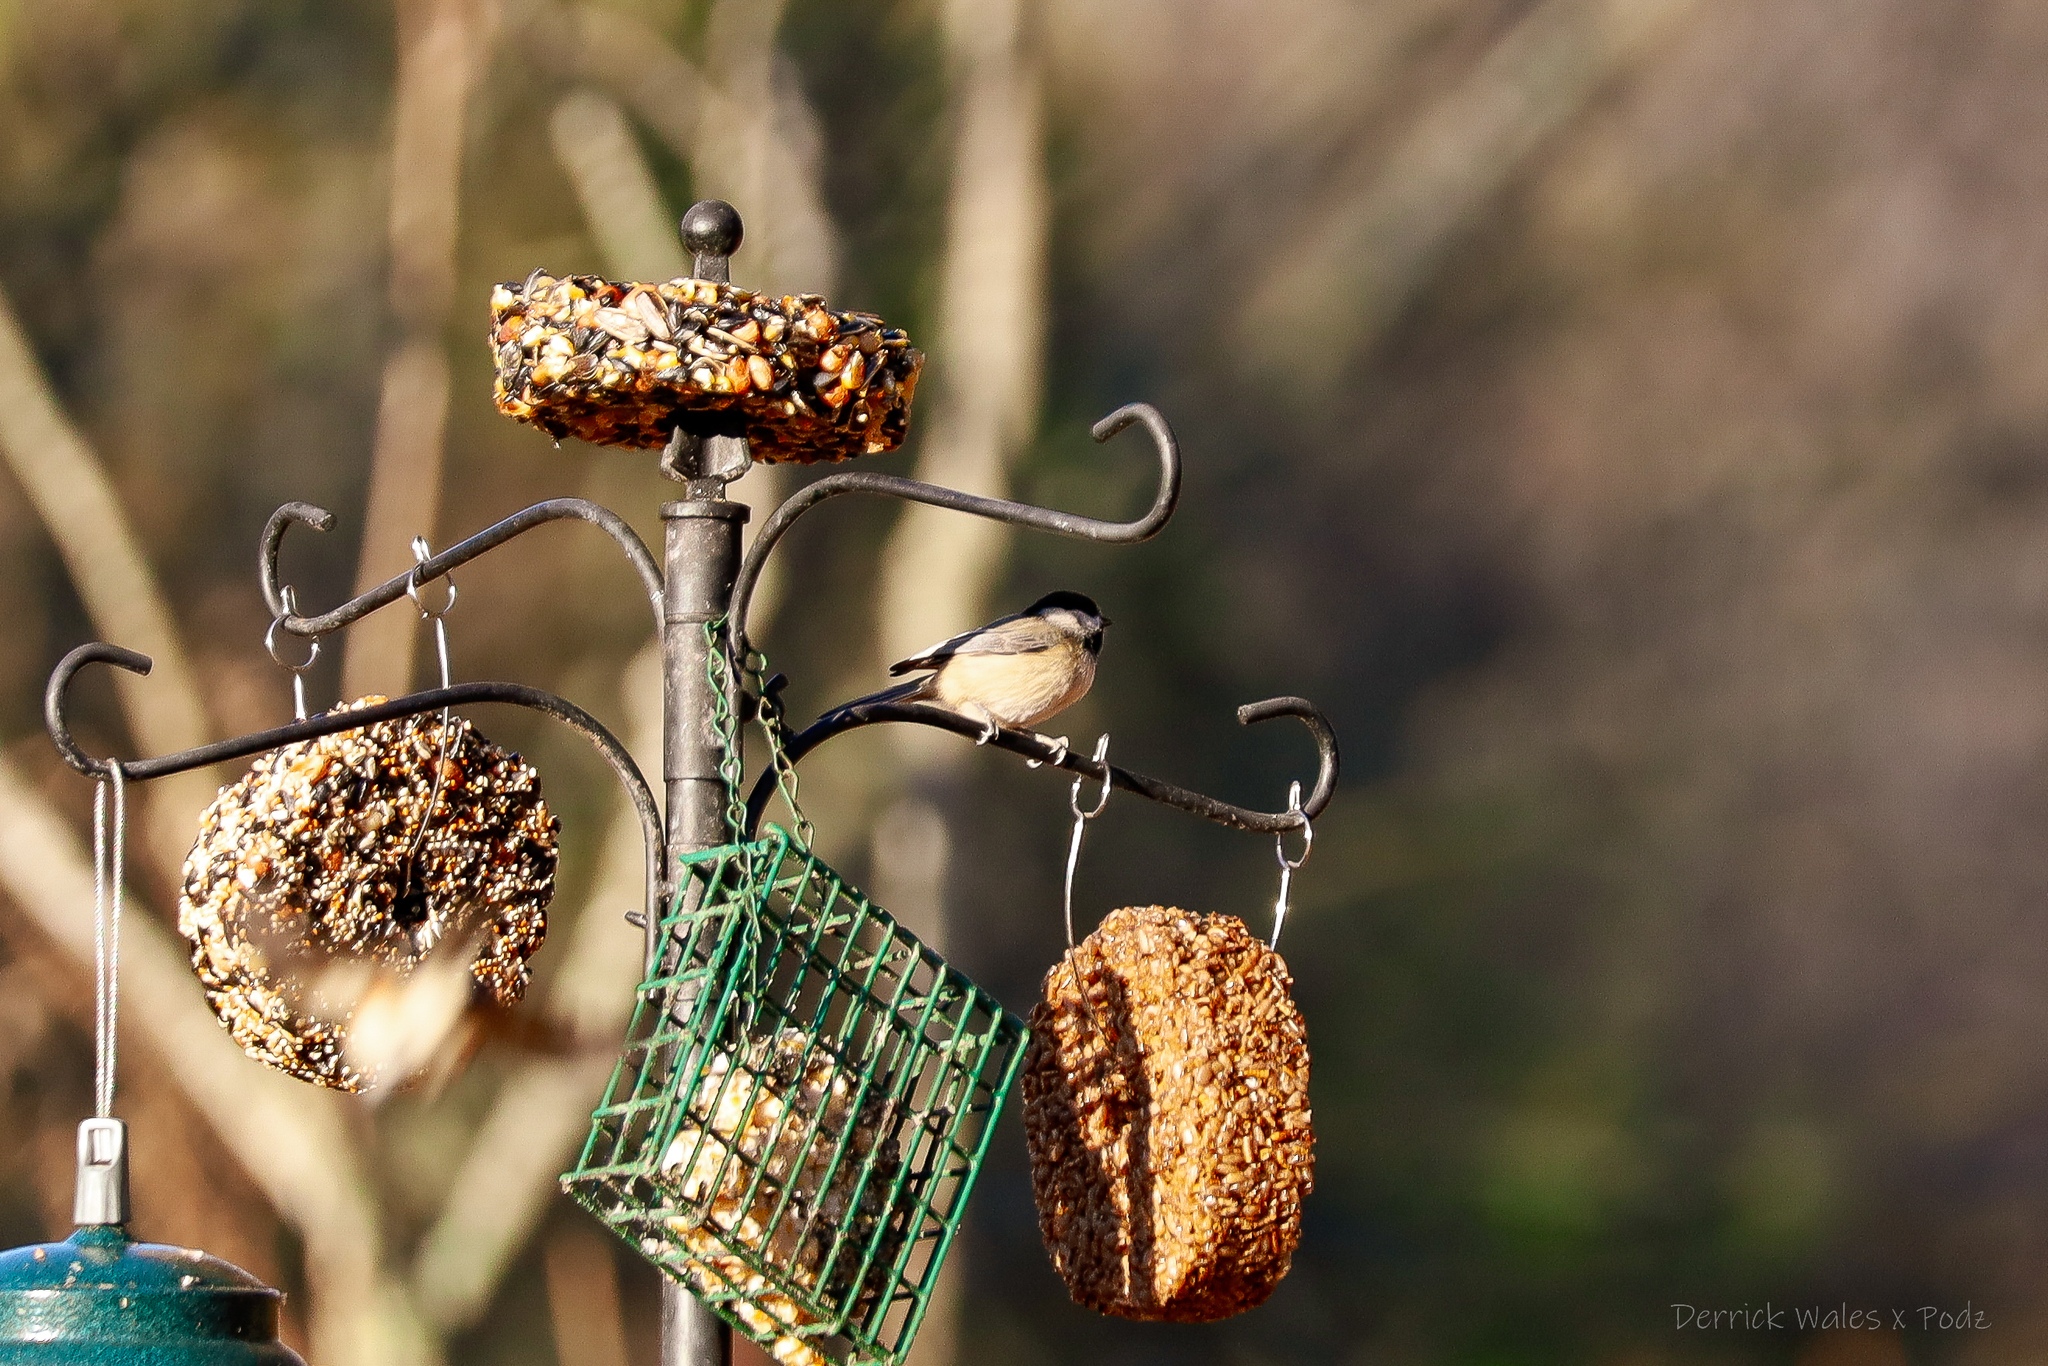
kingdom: Animalia
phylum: Chordata
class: Aves
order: Passeriformes
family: Paridae
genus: Poecile
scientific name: Poecile carolinensis
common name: Carolina chickadee
